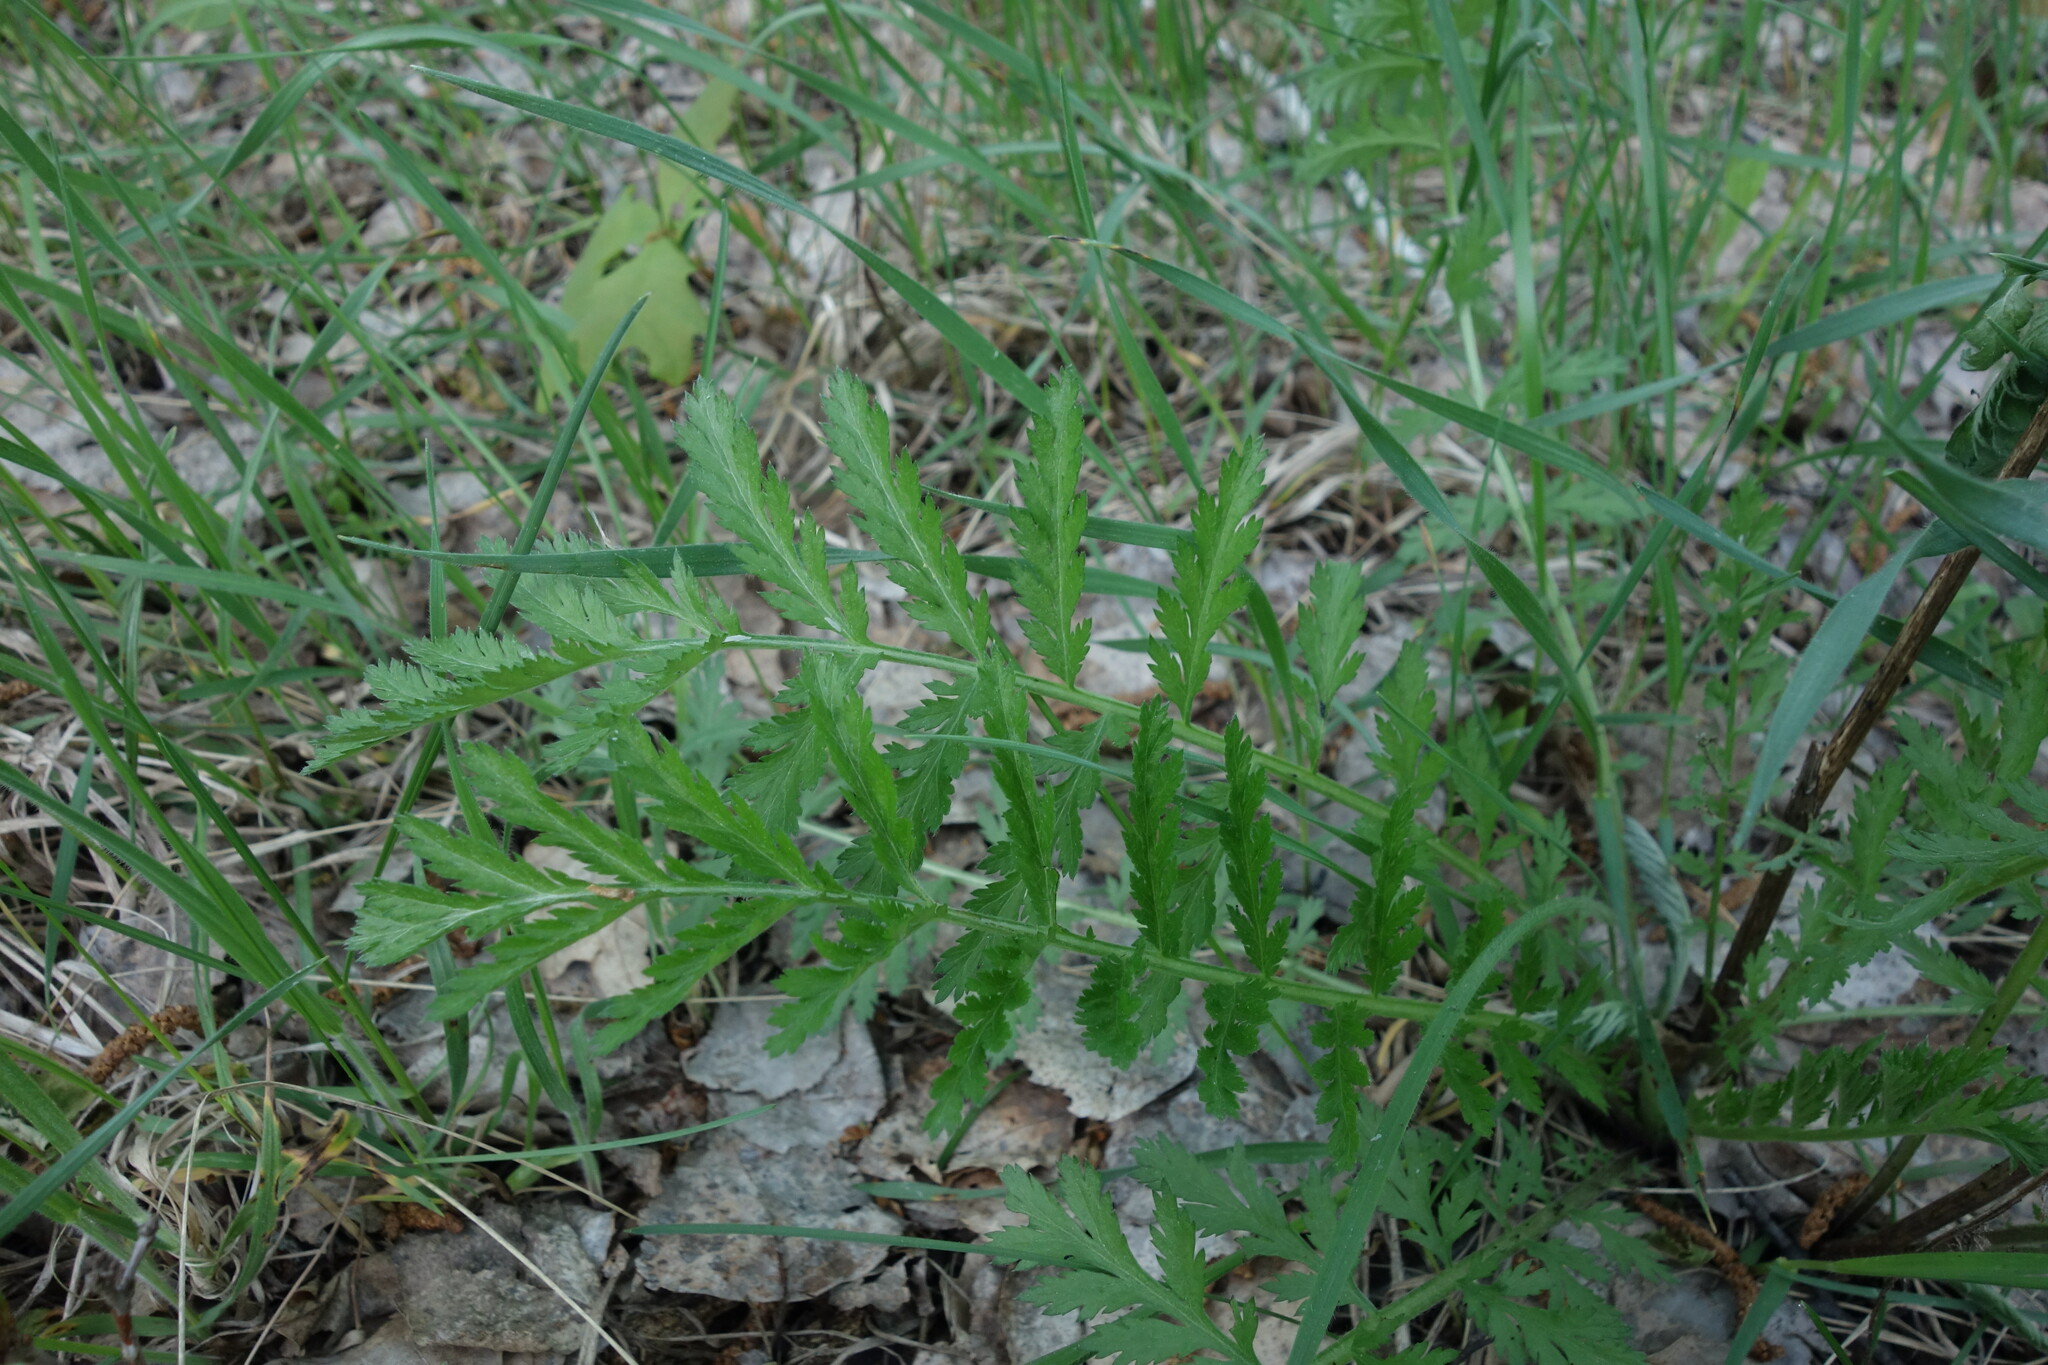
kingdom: Plantae
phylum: Tracheophyta
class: Magnoliopsida
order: Asterales
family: Asteraceae
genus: Tanacetum
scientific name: Tanacetum corymbosum
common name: Scentless feverfew
